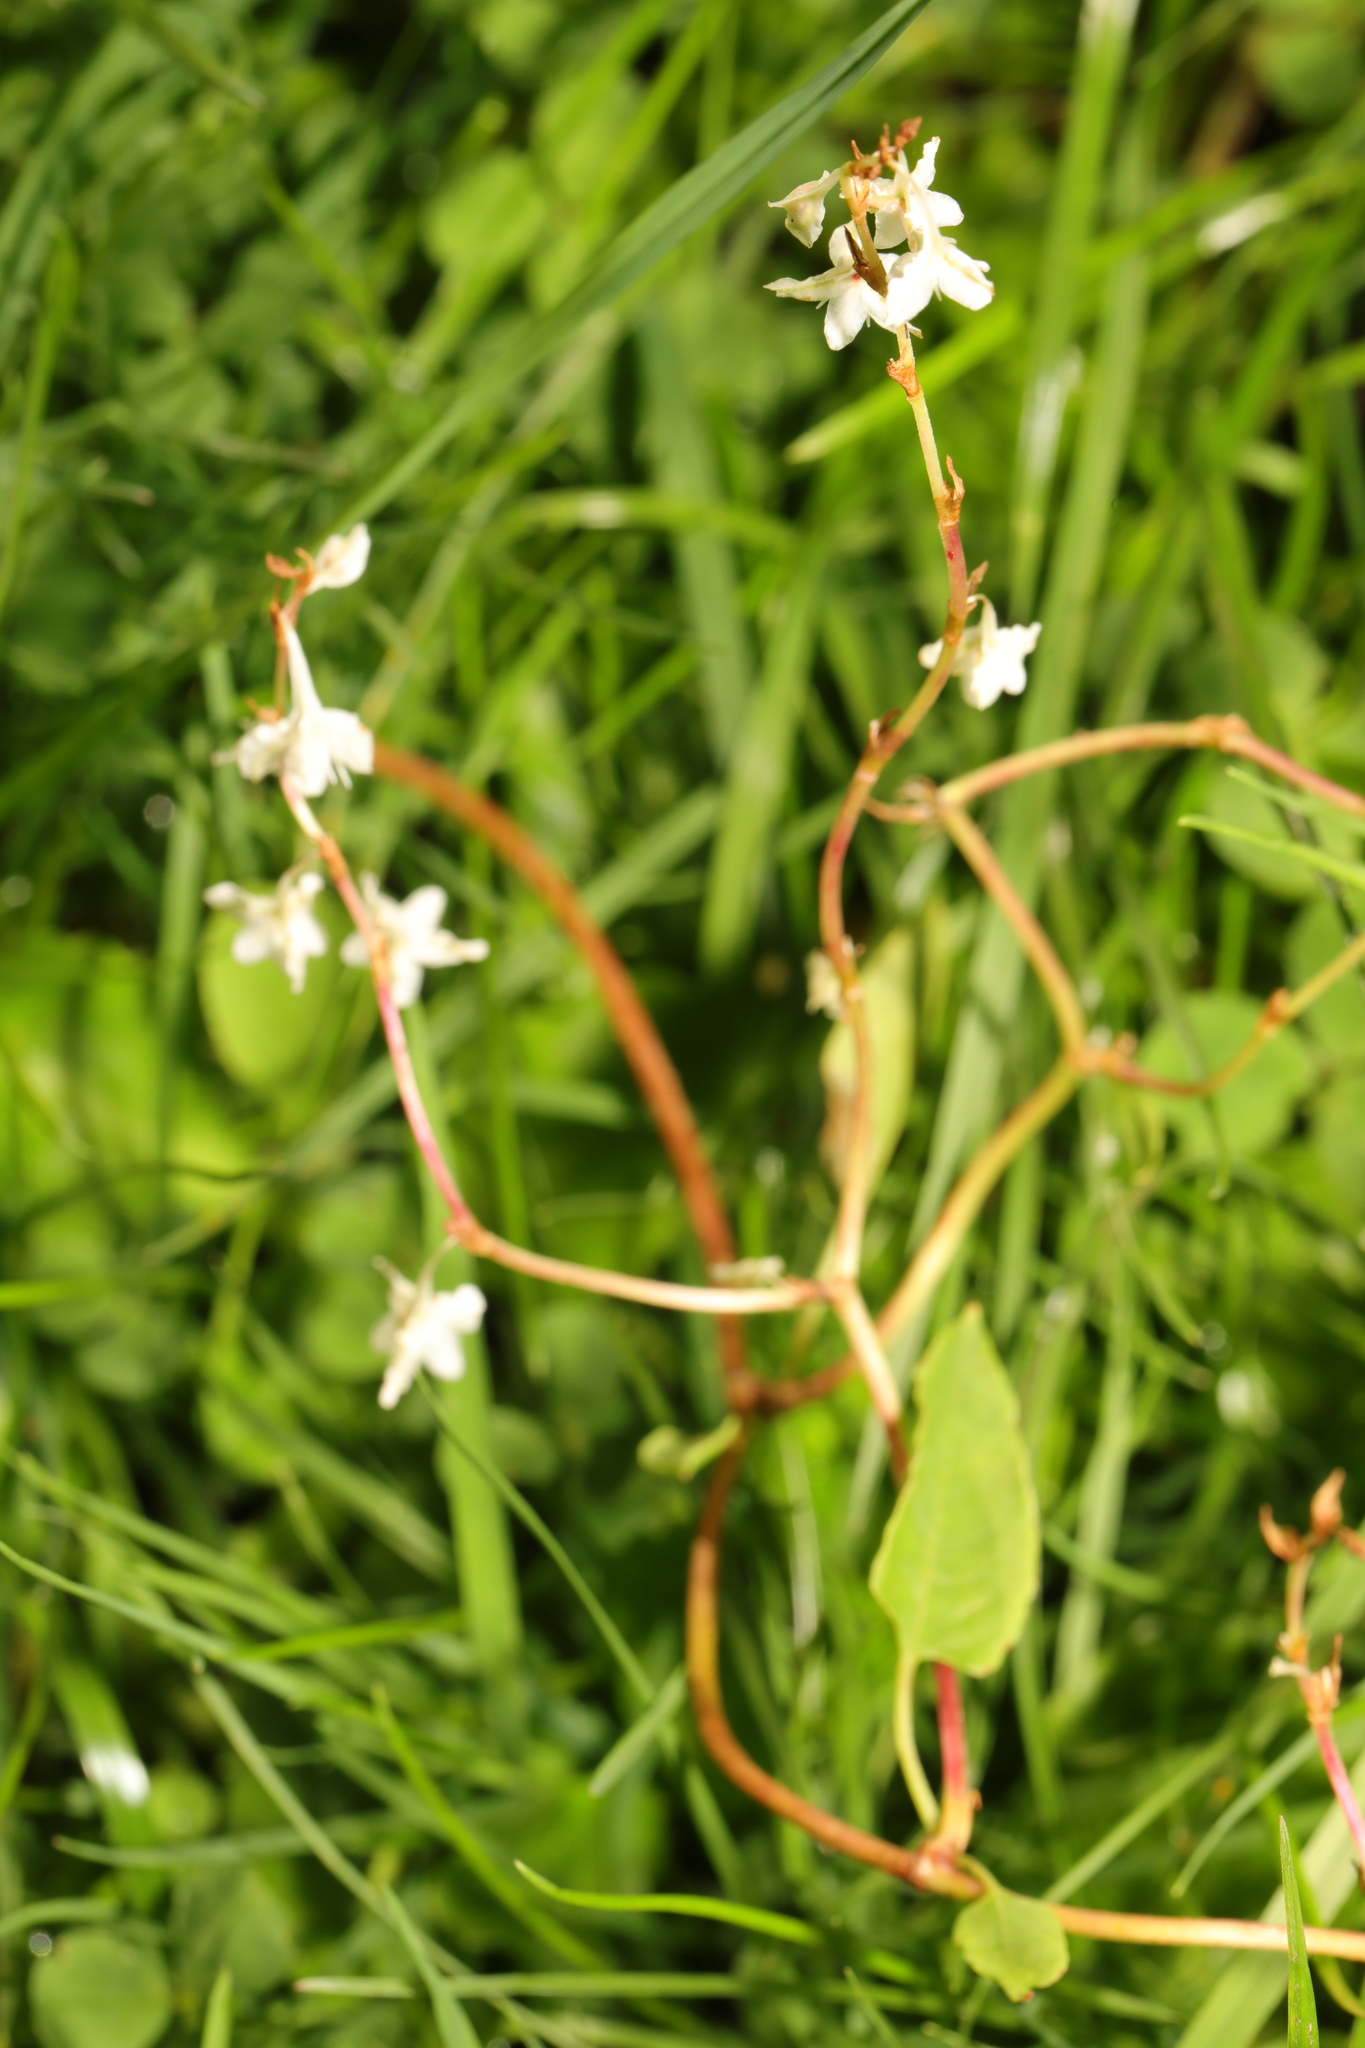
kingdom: Plantae
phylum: Tracheophyta
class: Magnoliopsida
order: Caryophyllales
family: Polygonaceae
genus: Fallopia
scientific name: Fallopia baldschuanica
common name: Russian-vine
